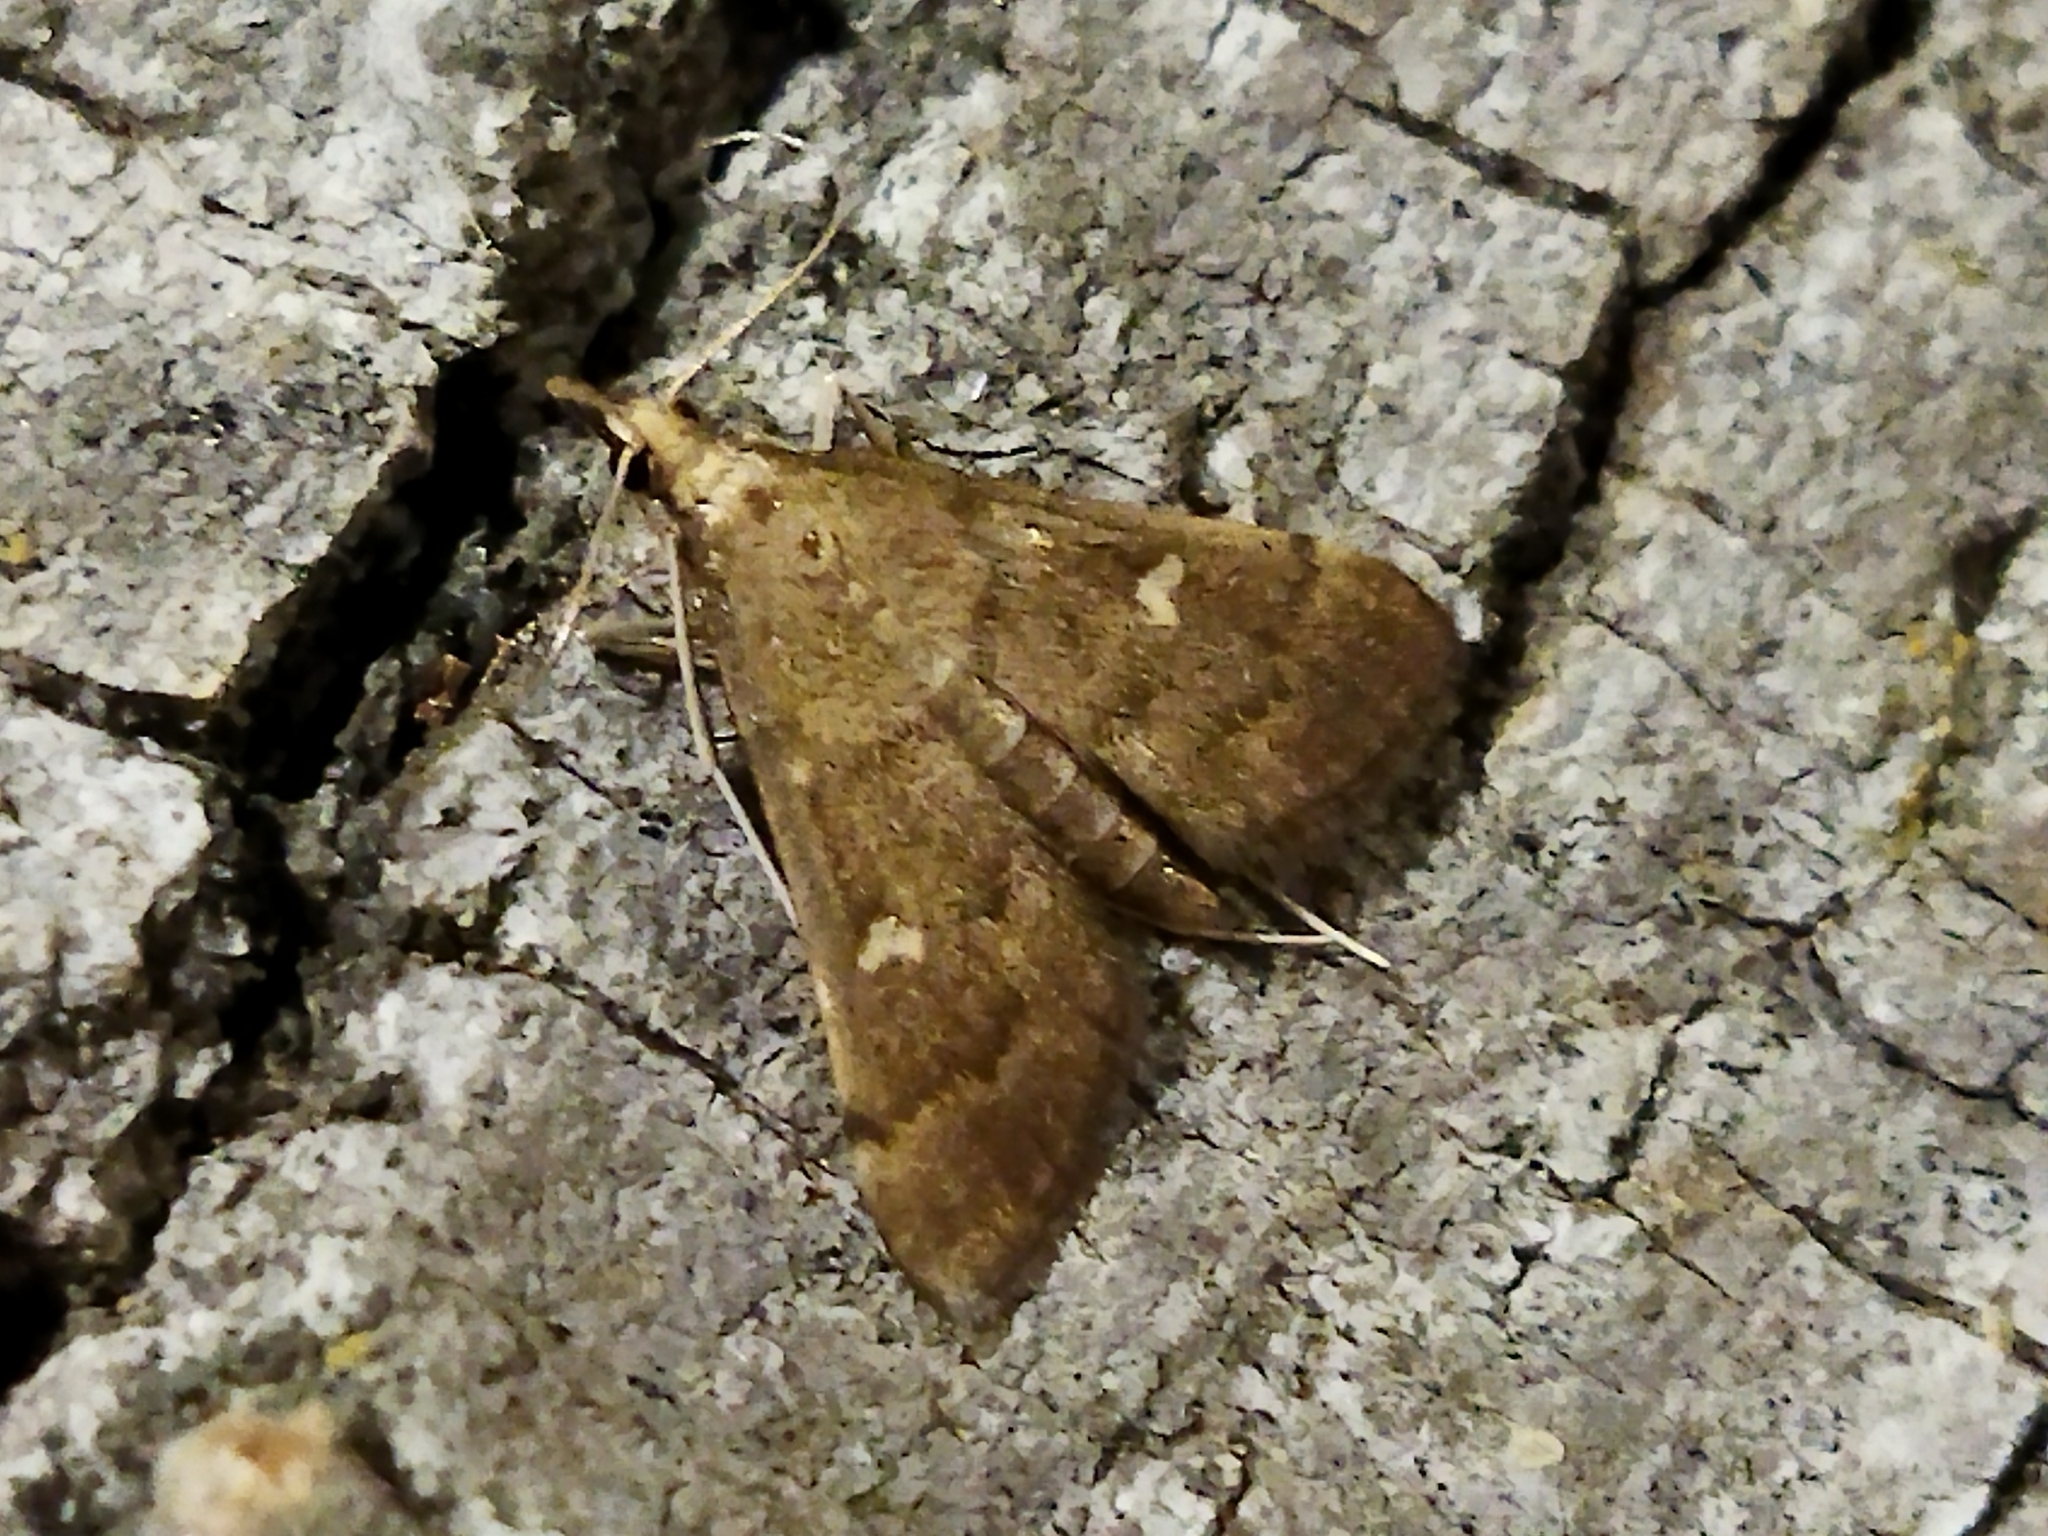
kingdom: Animalia
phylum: Arthropoda
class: Insecta
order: Lepidoptera
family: Crambidae
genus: Stenia
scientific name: Stenia Dolicharthria punctalis
